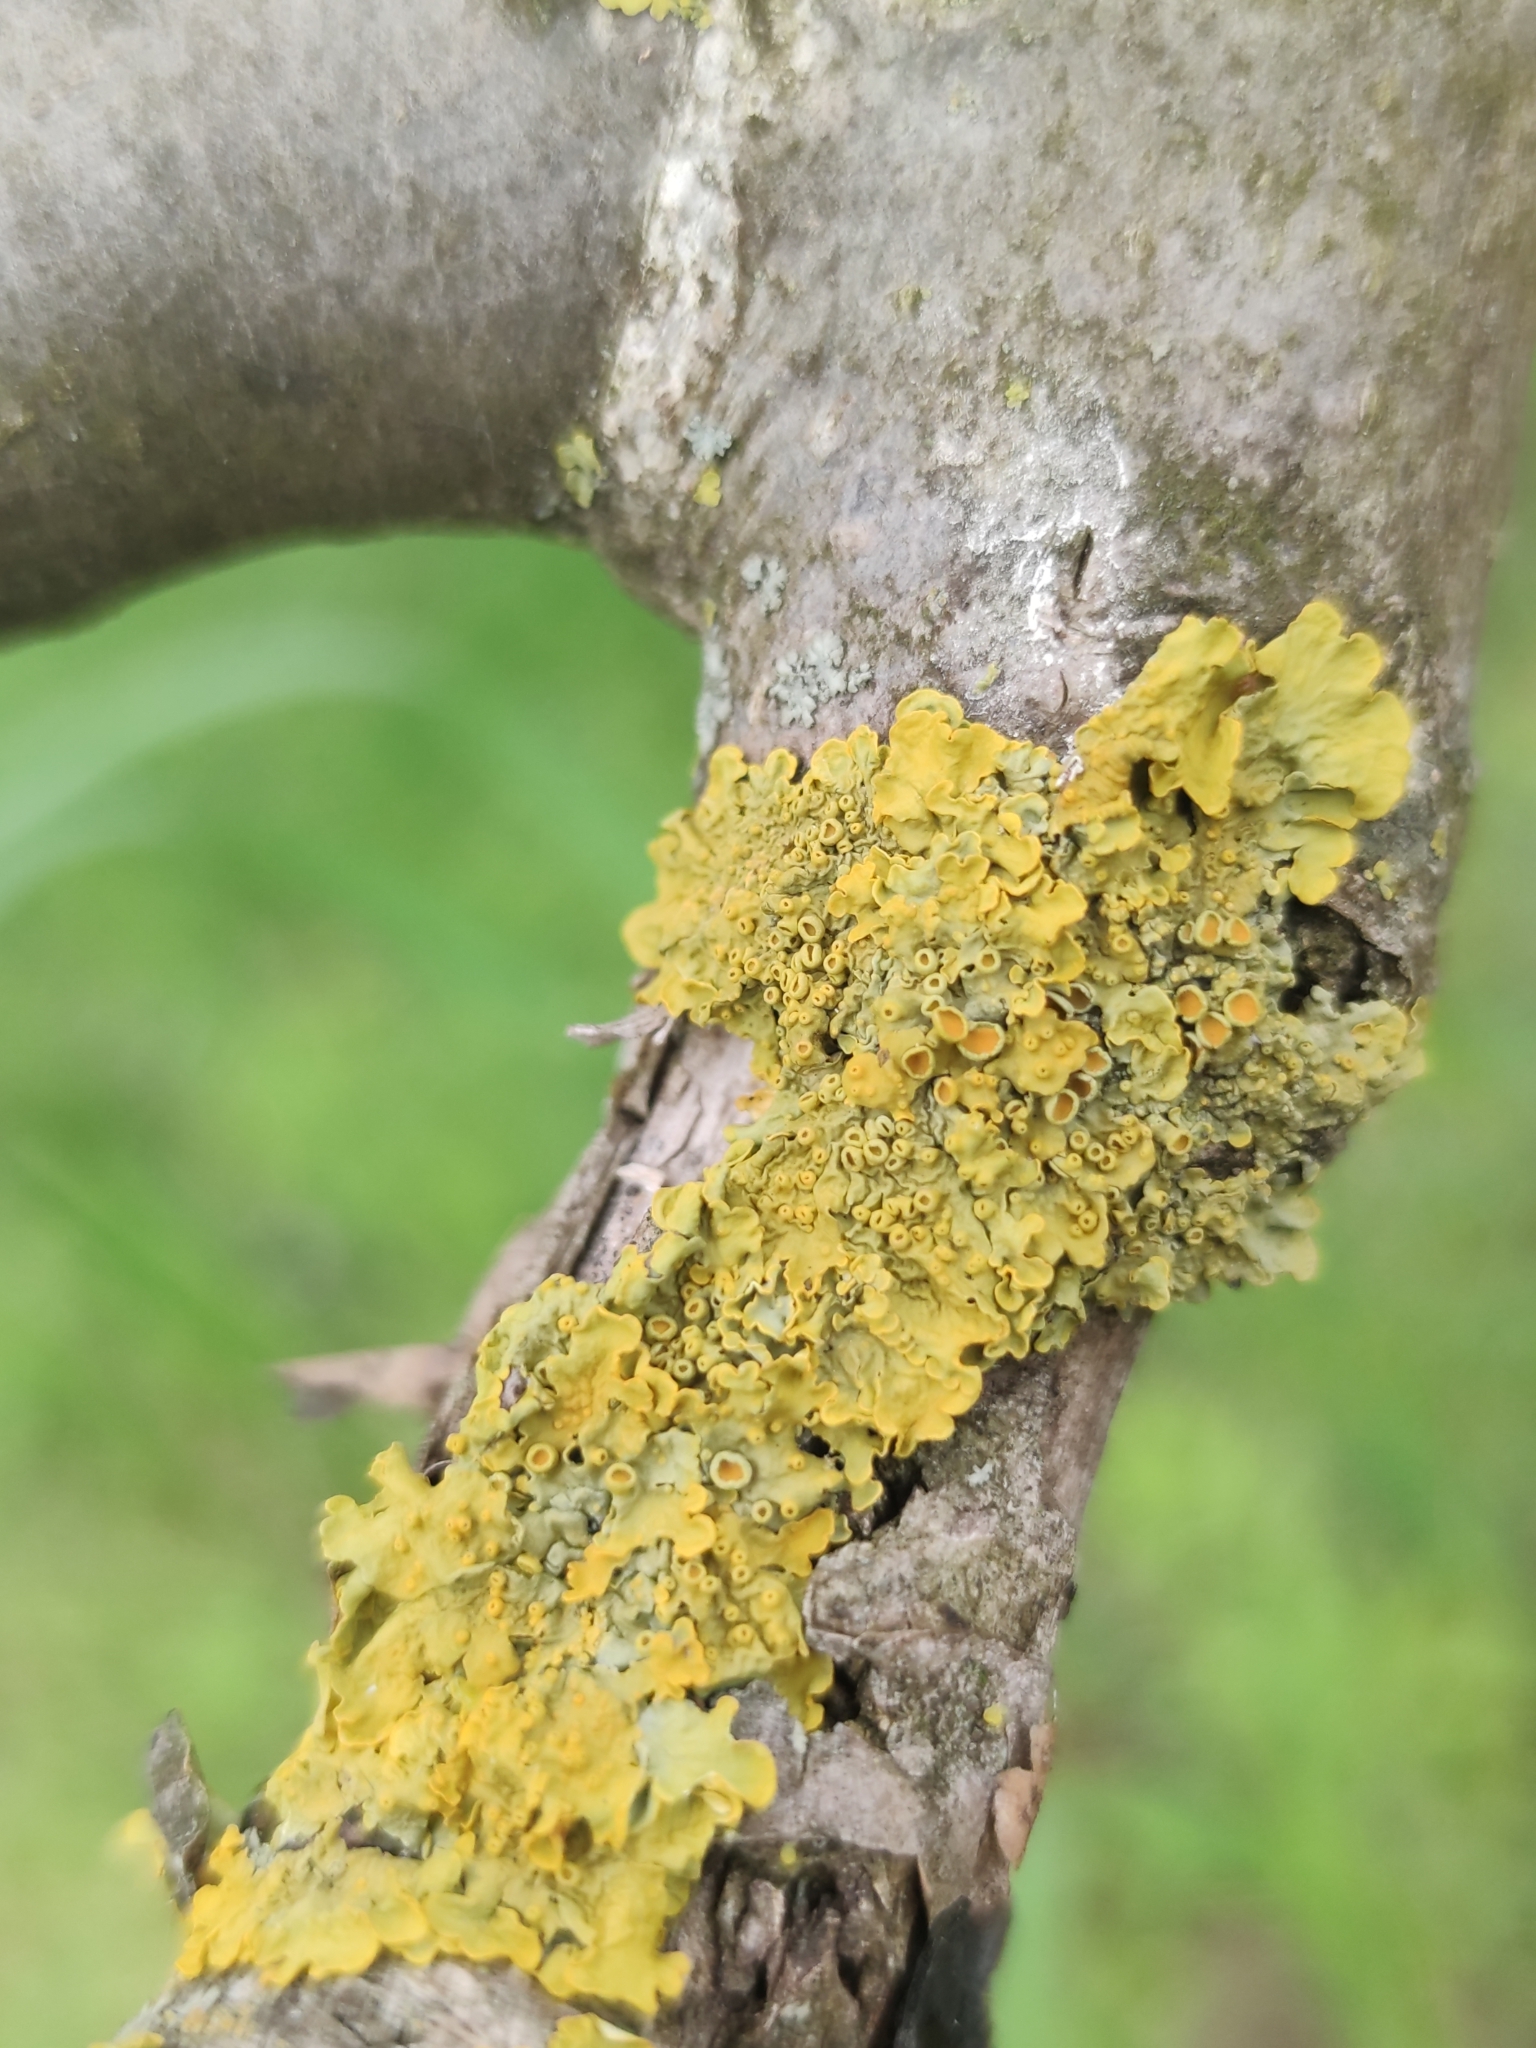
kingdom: Fungi
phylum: Ascomycota
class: Lecanoromycetes
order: Teloschistales
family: Teloschistaceae
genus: Xanthoria
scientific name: Xanthoria parietina
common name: Common orange lichen
